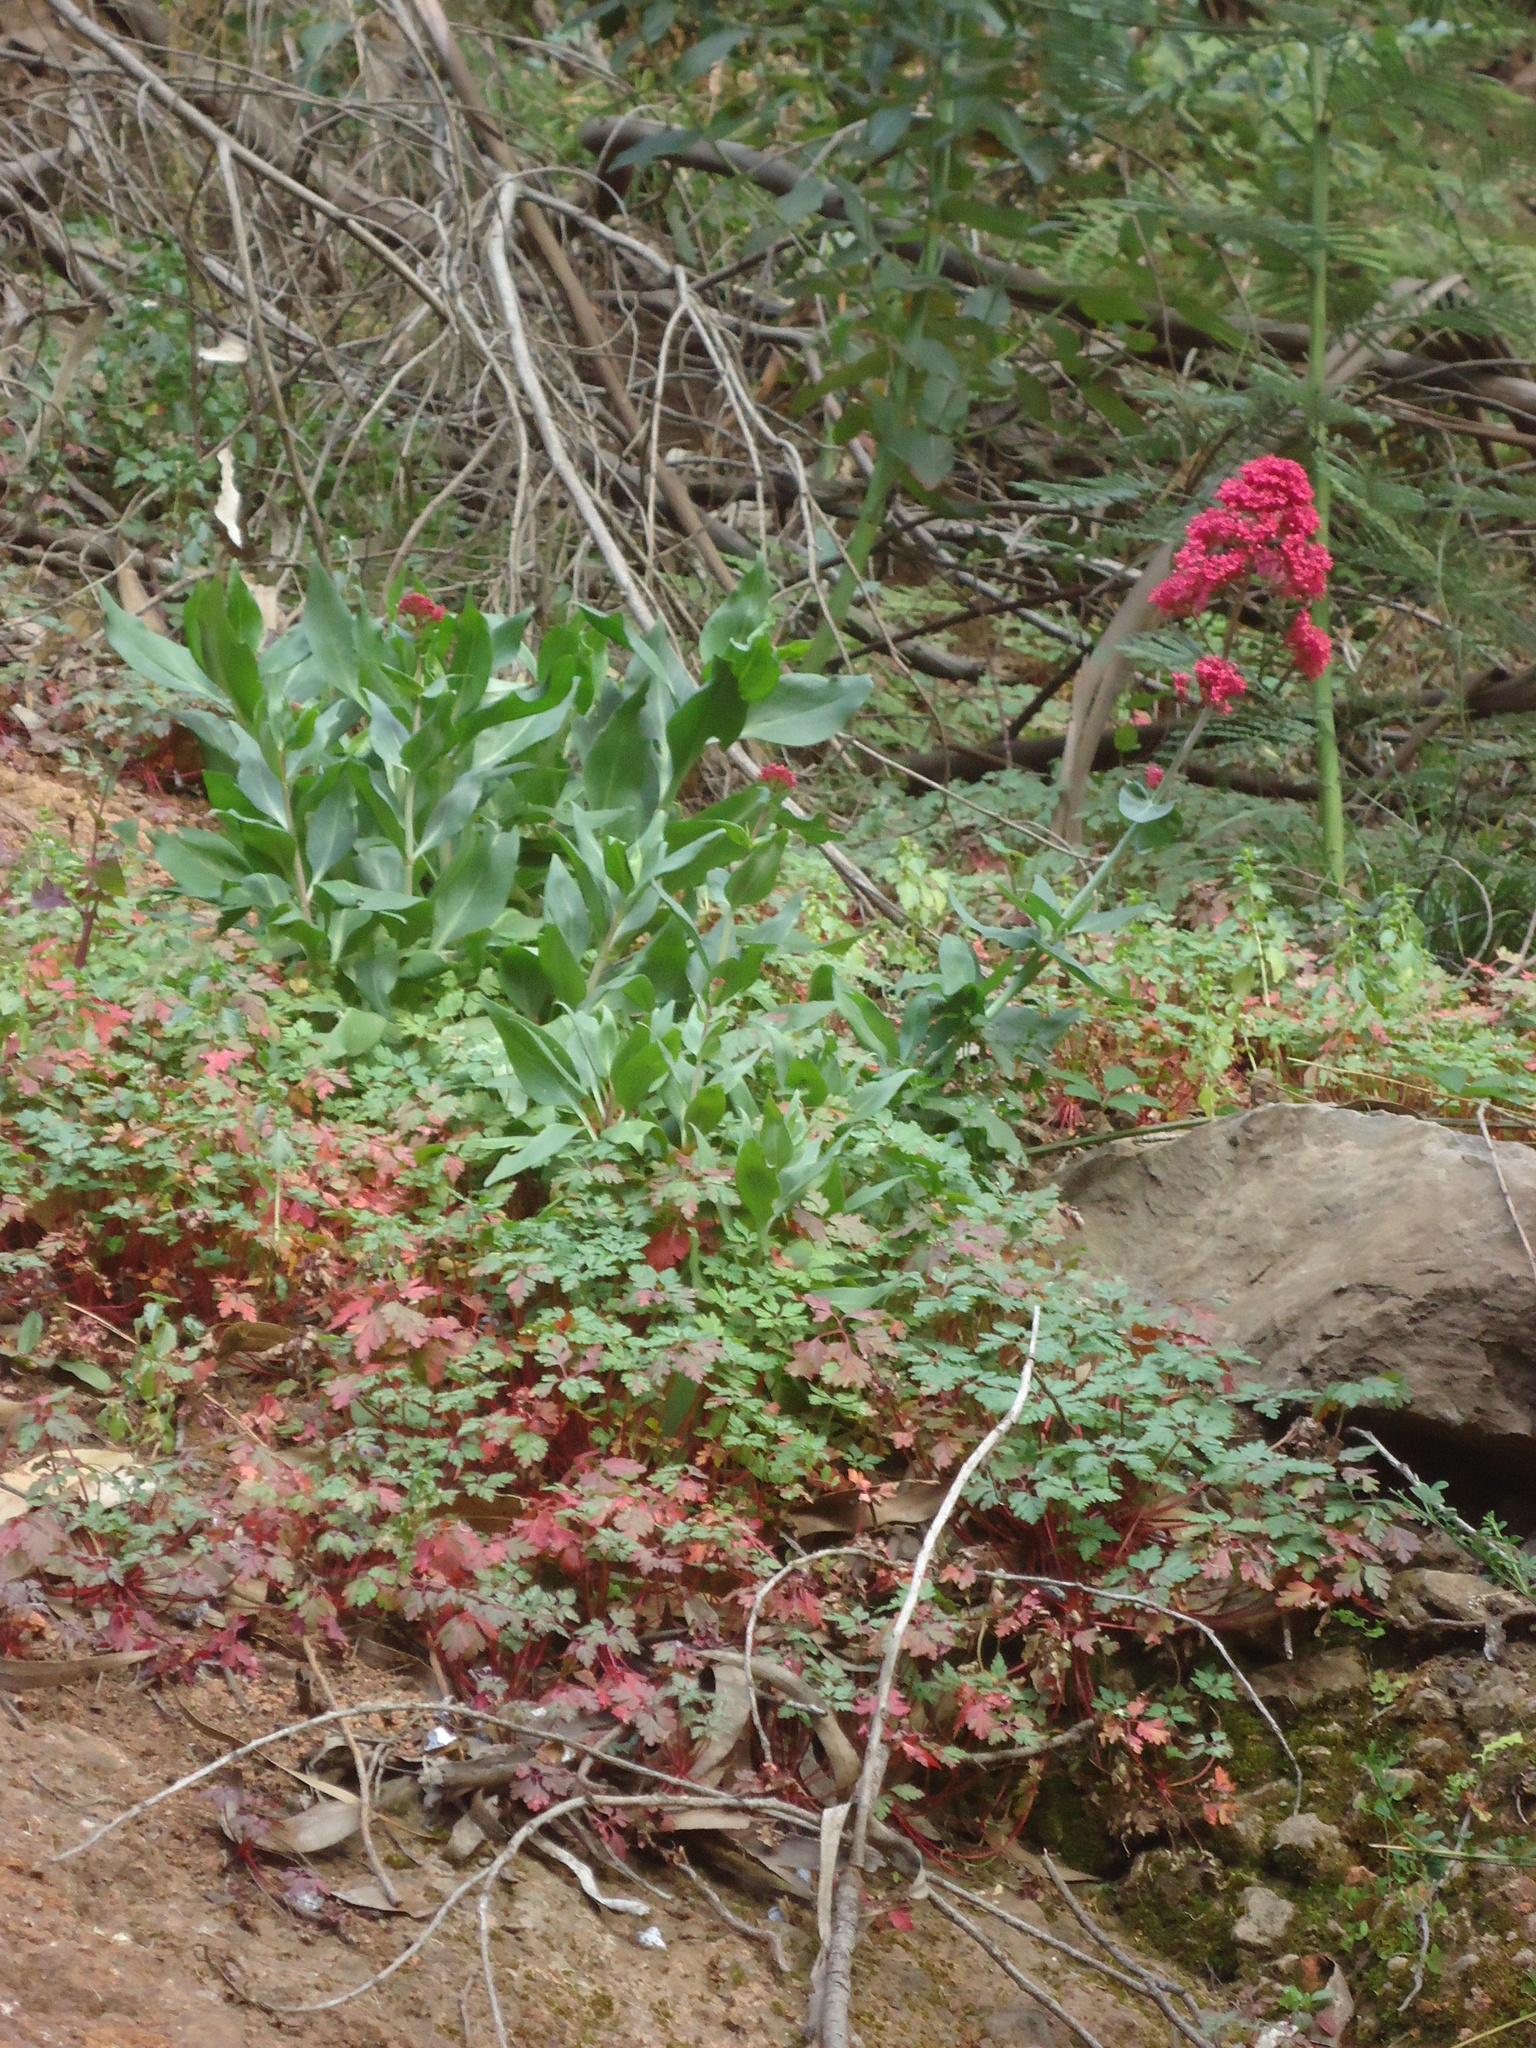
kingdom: Plantae
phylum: Tracheophyta
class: Magnoliopsida
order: Dipsacales
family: Caprifoliaceae
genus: Centranthus
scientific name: Centranthus ruber
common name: Red valerian
